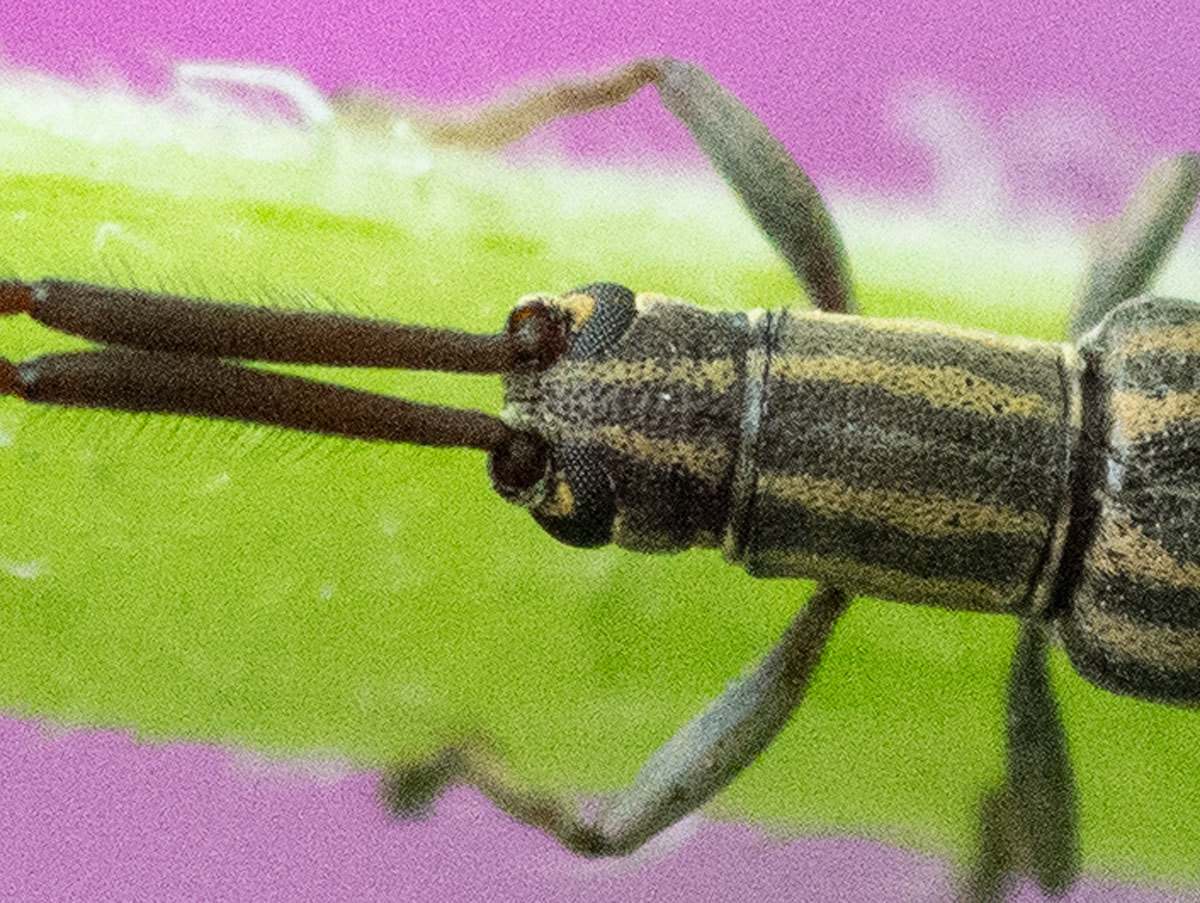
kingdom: Animalia
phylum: Arthropoda
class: Insecta
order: Coleoptera
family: Cerambycidae
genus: Hippopsis
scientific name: Hippopsis
